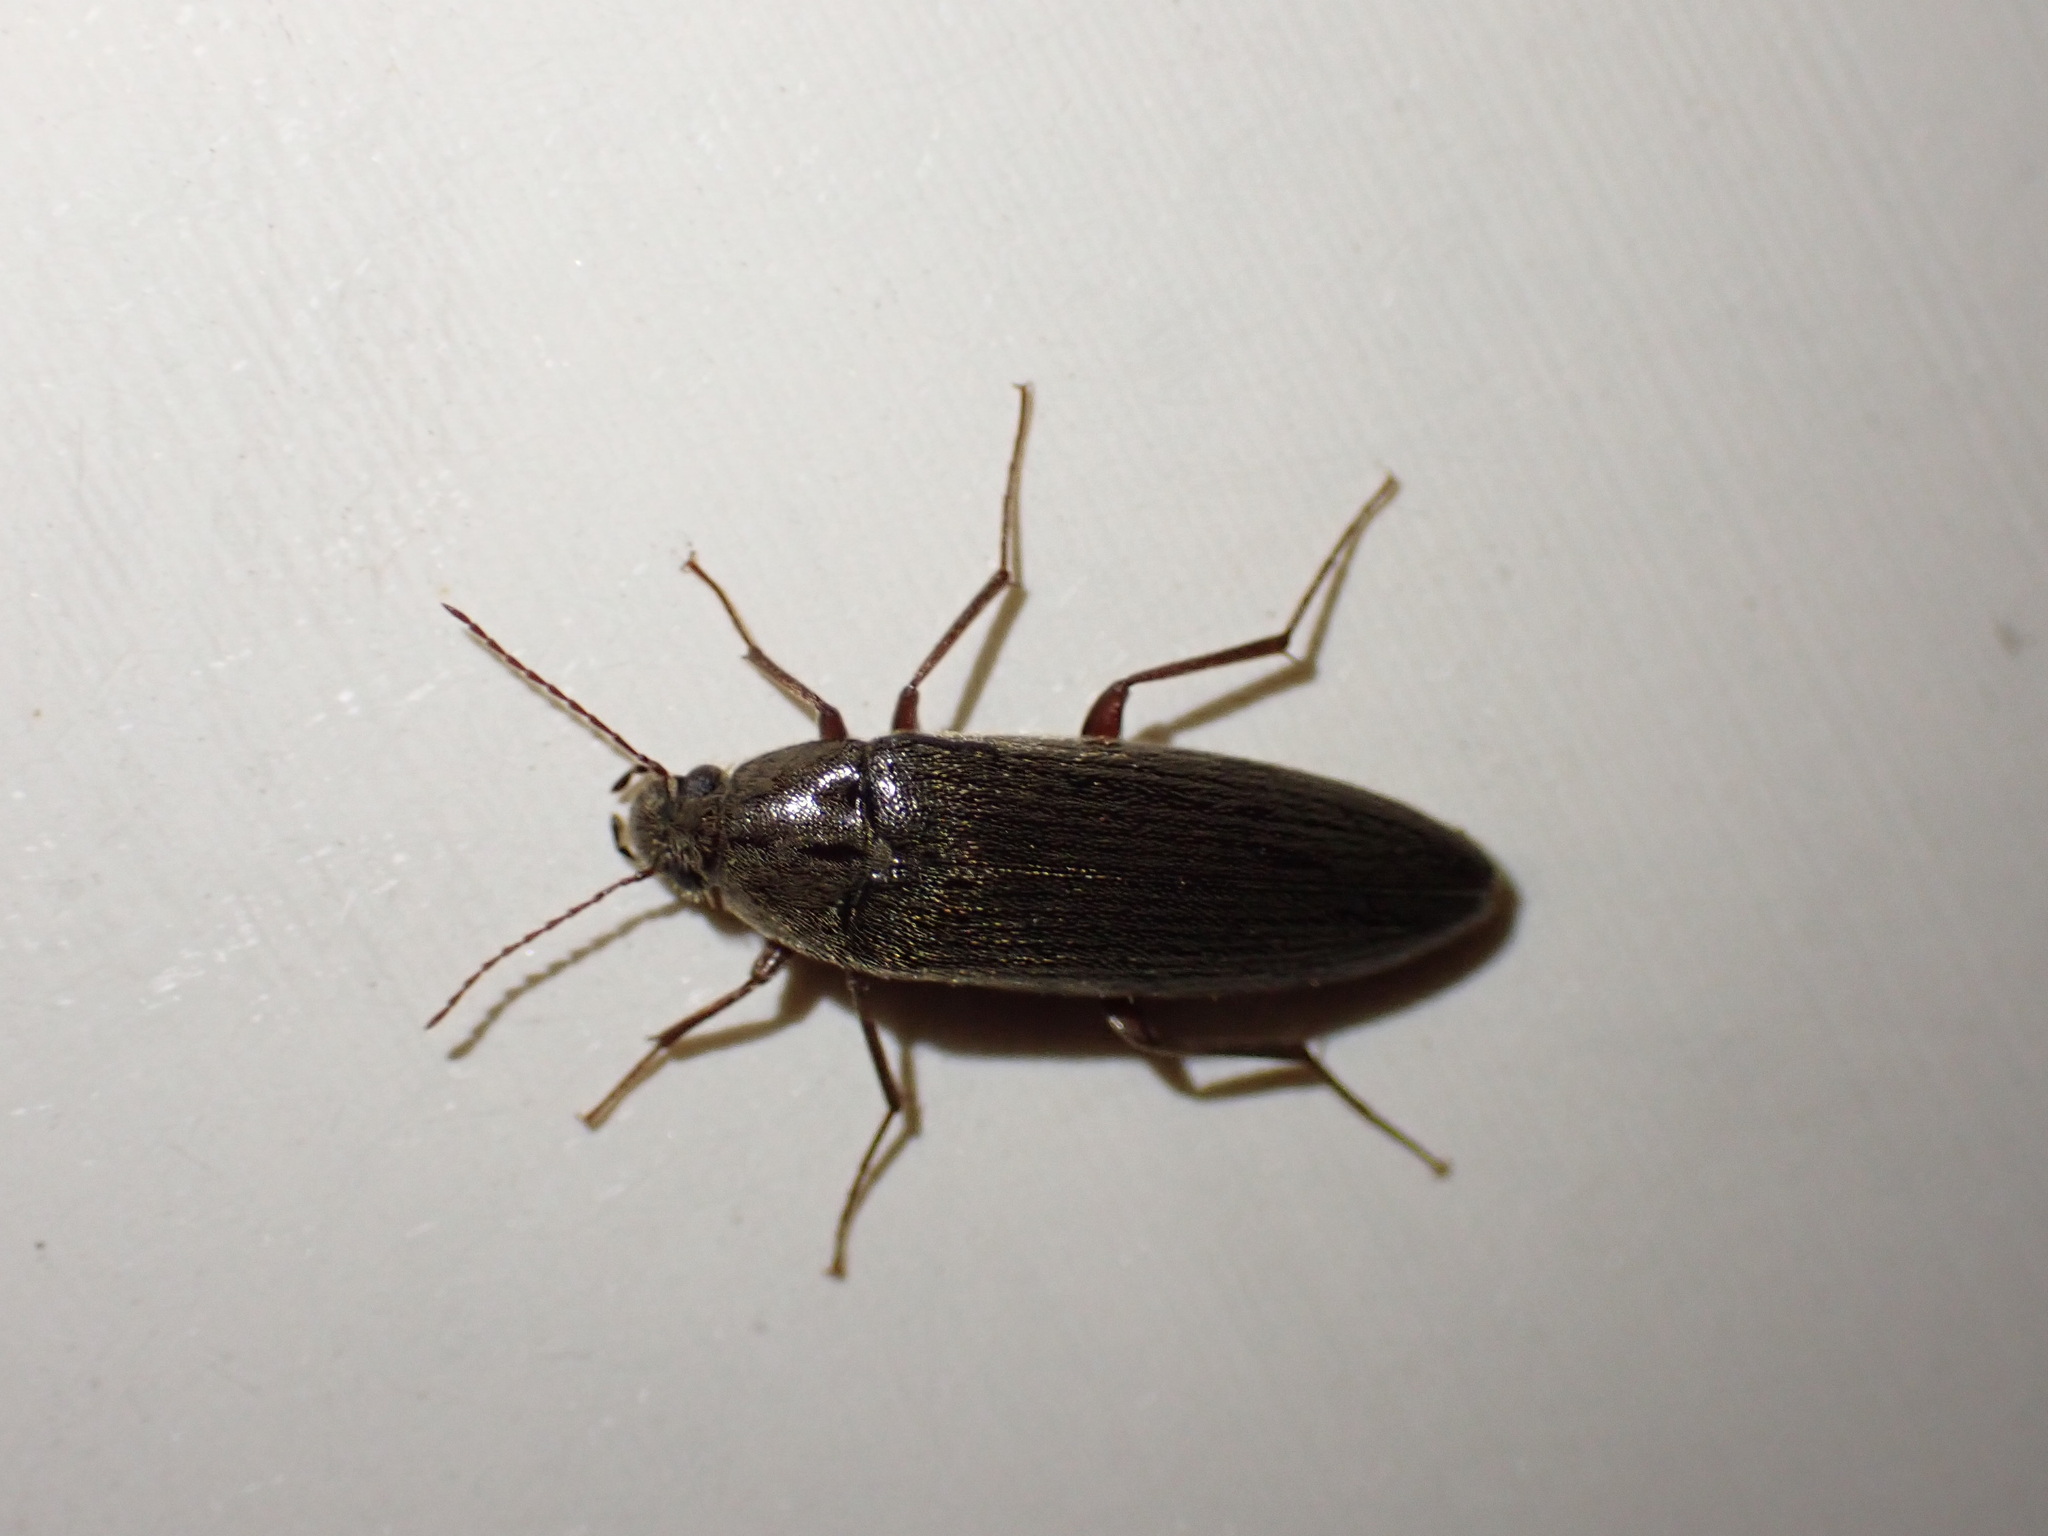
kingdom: Animalia
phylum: Arthropoda
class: Insecta
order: Coleoptera
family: Synchroidae
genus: Synchroa
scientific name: Synchroa punctata
